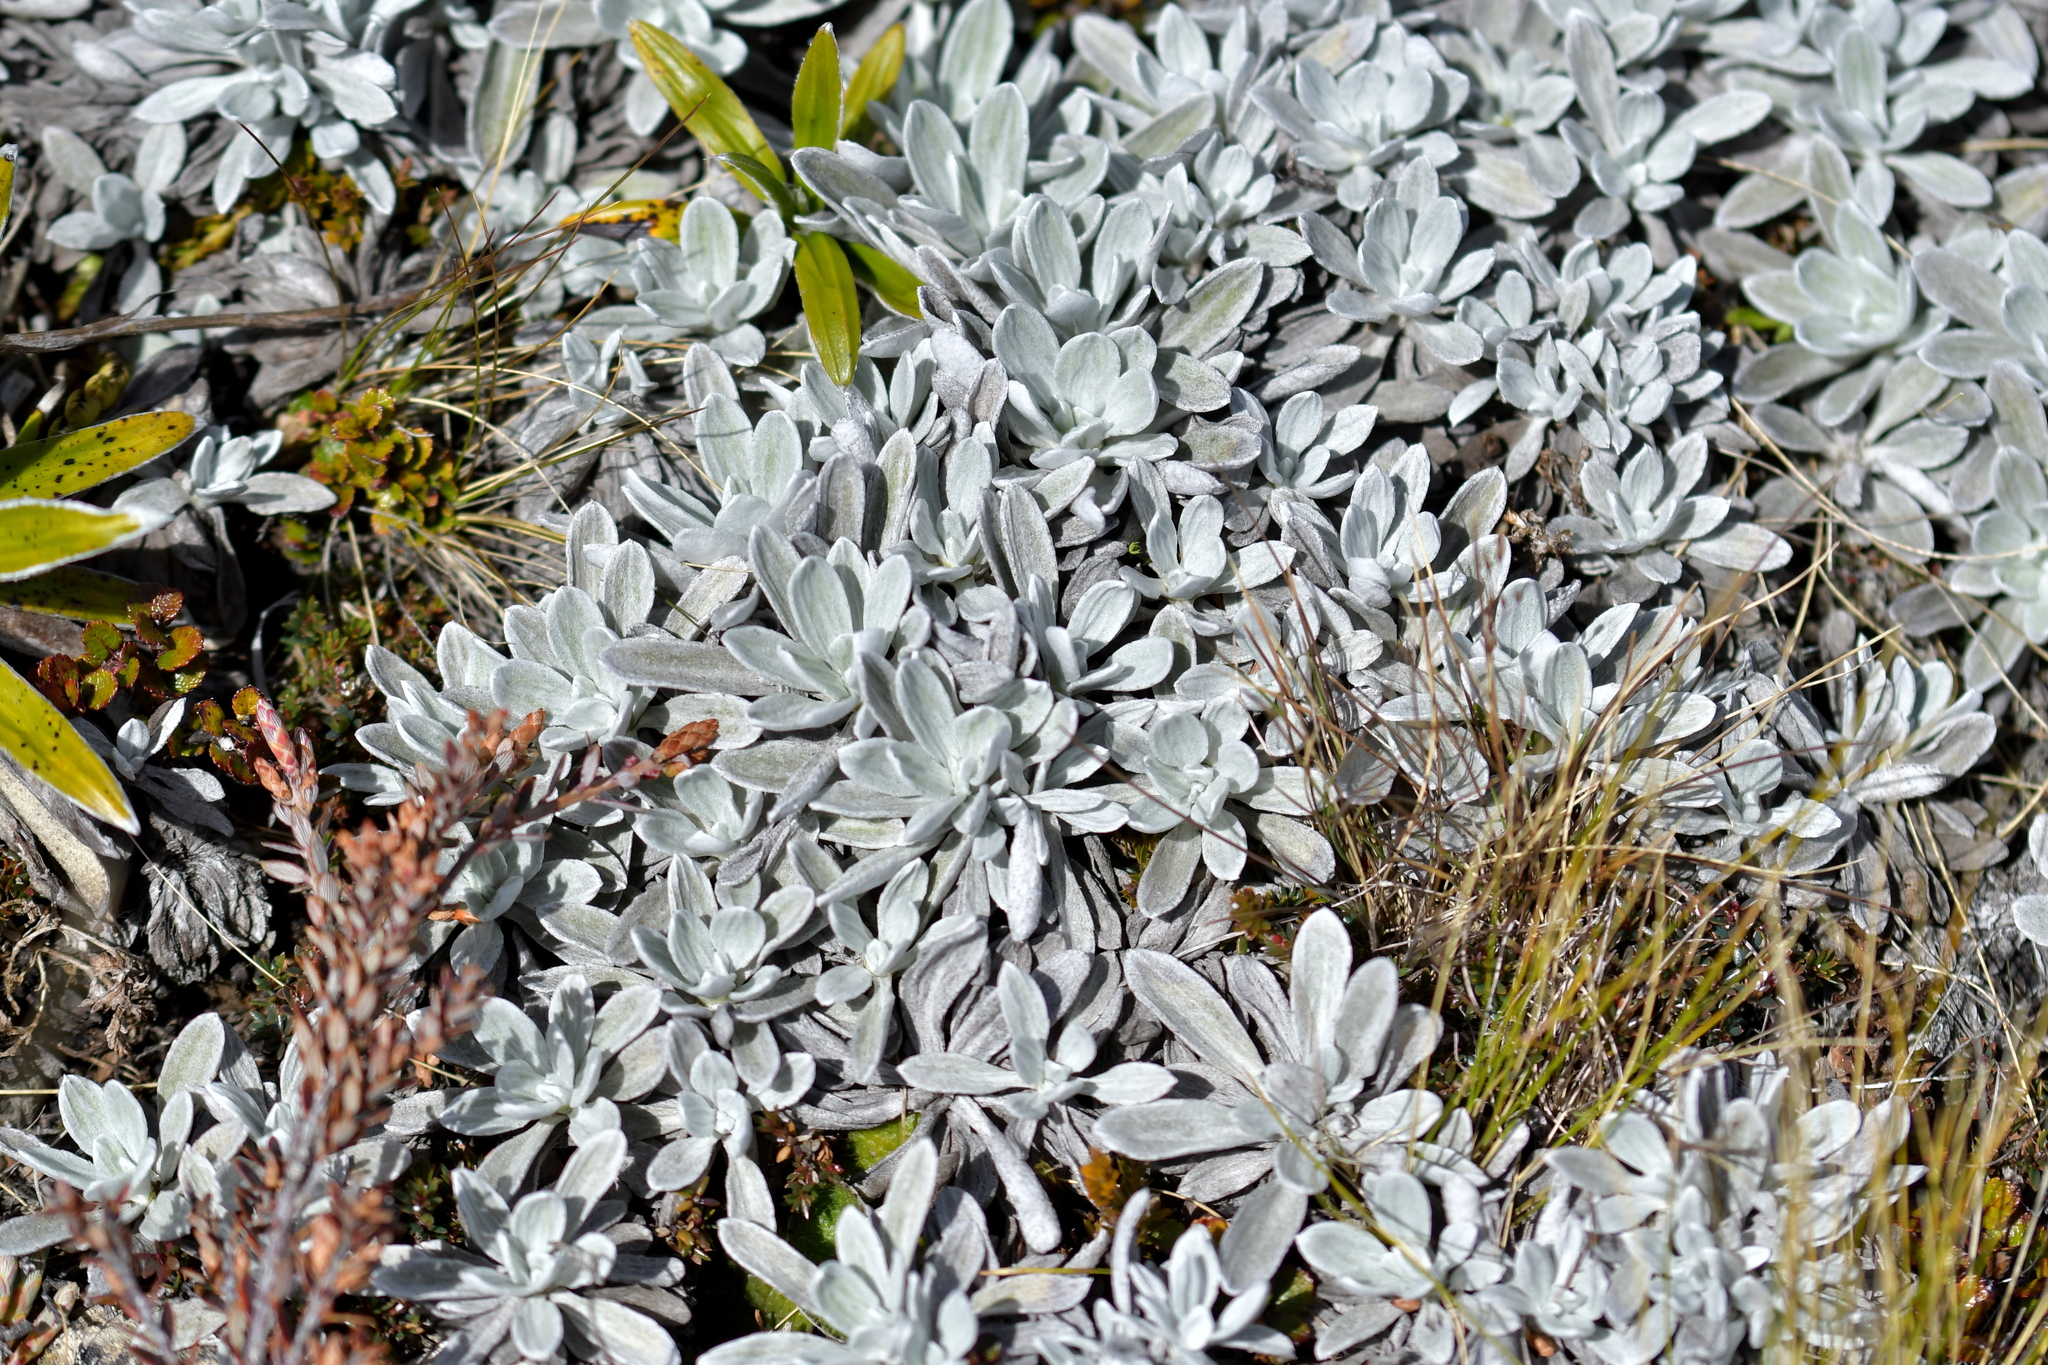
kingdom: Plantae
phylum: Tracheophyta
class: Magnoliopsida
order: Asterales
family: Asteraceae
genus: Celmisia
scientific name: Celmisia allanii
